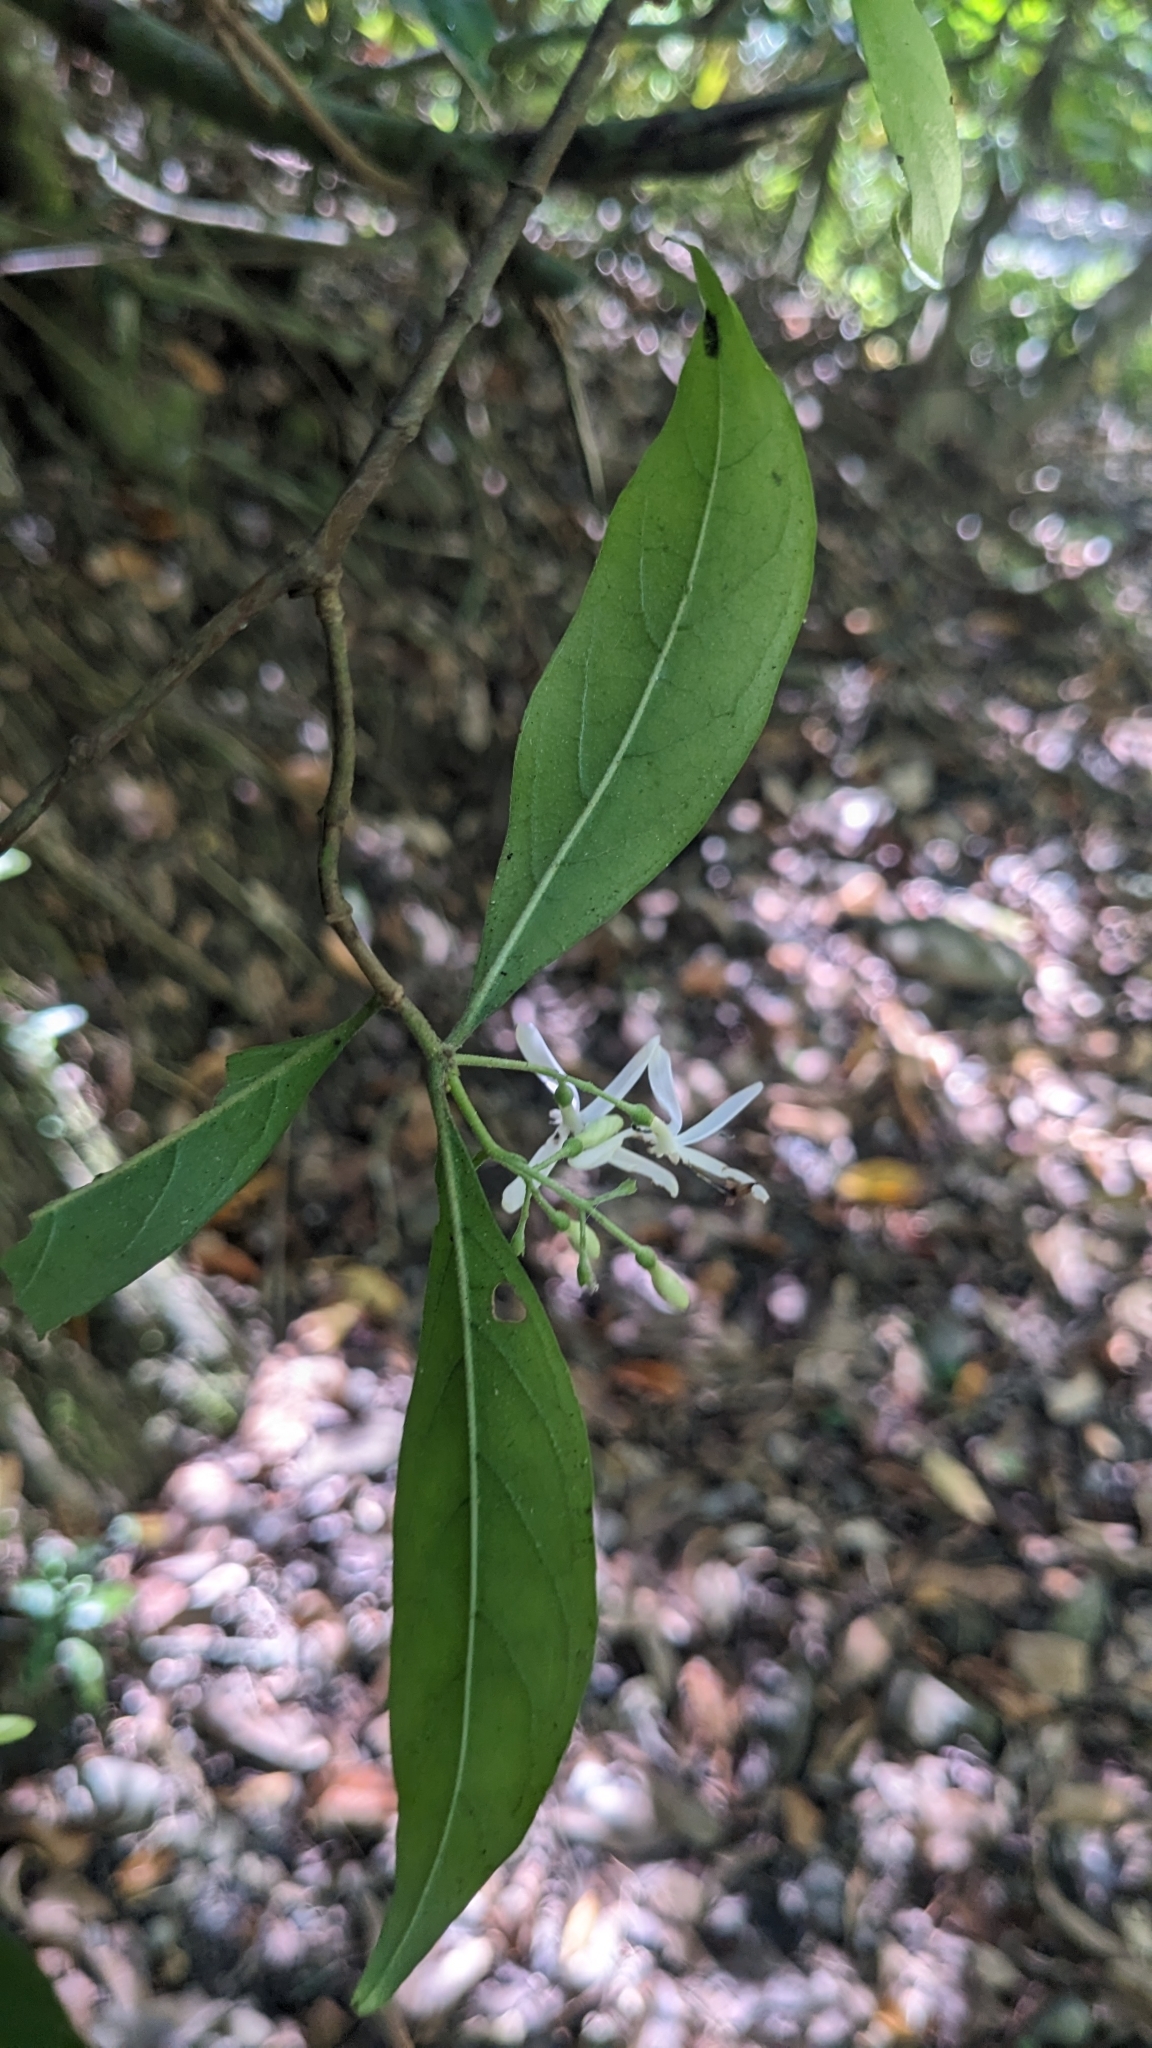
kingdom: Plantae
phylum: Tracheophyta
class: Magnoliopsida
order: Gentianales
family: Rubiaceae
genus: Tarenna
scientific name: Tarenna gracilipes
